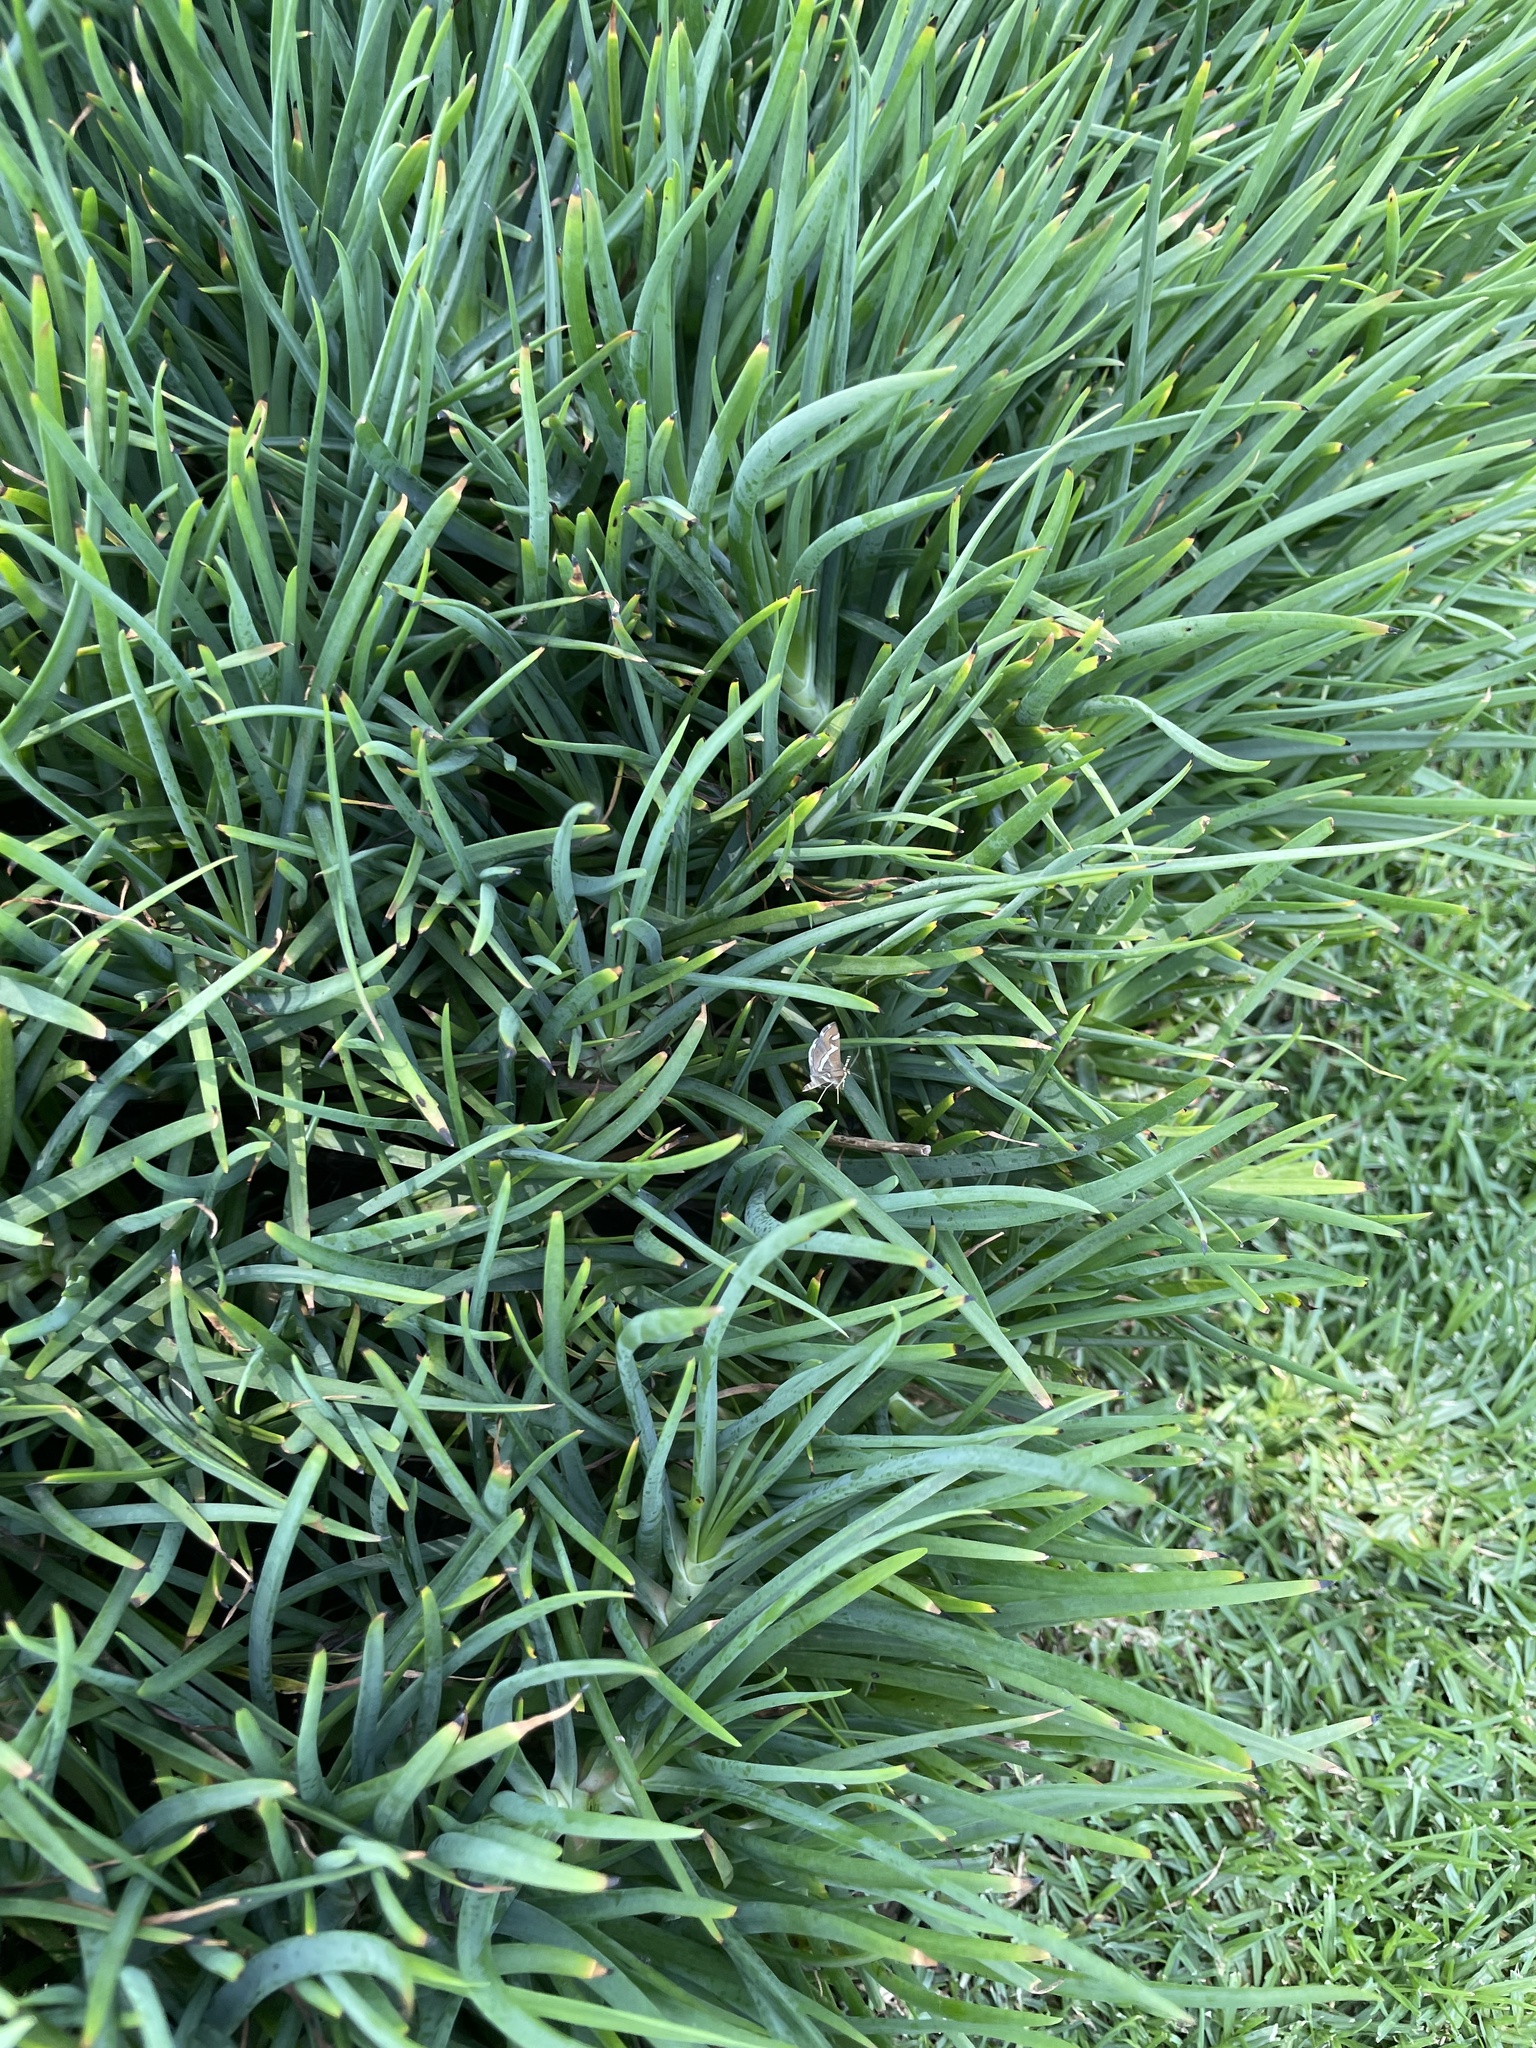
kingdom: Animalia
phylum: Arthropoda
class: Insecta
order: Lepidoptera
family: Crambidae
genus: Spoladea
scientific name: Spoladea recurvalis
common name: Beet webworm moth
